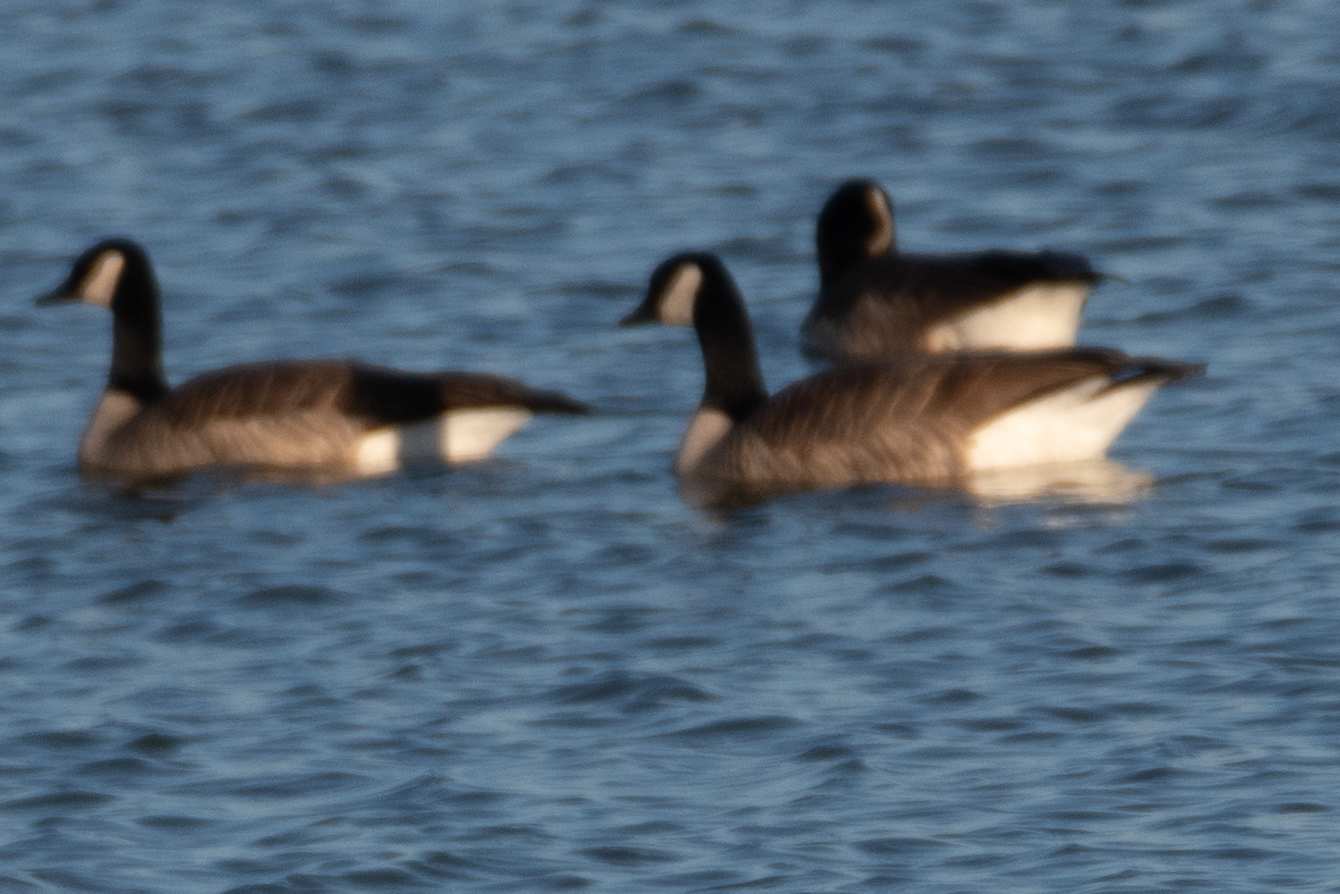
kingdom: Animalia
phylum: Chordata
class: Aves
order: Anseriformes
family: Anatidae
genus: Branta
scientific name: Branta canadensis
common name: Canada goose
